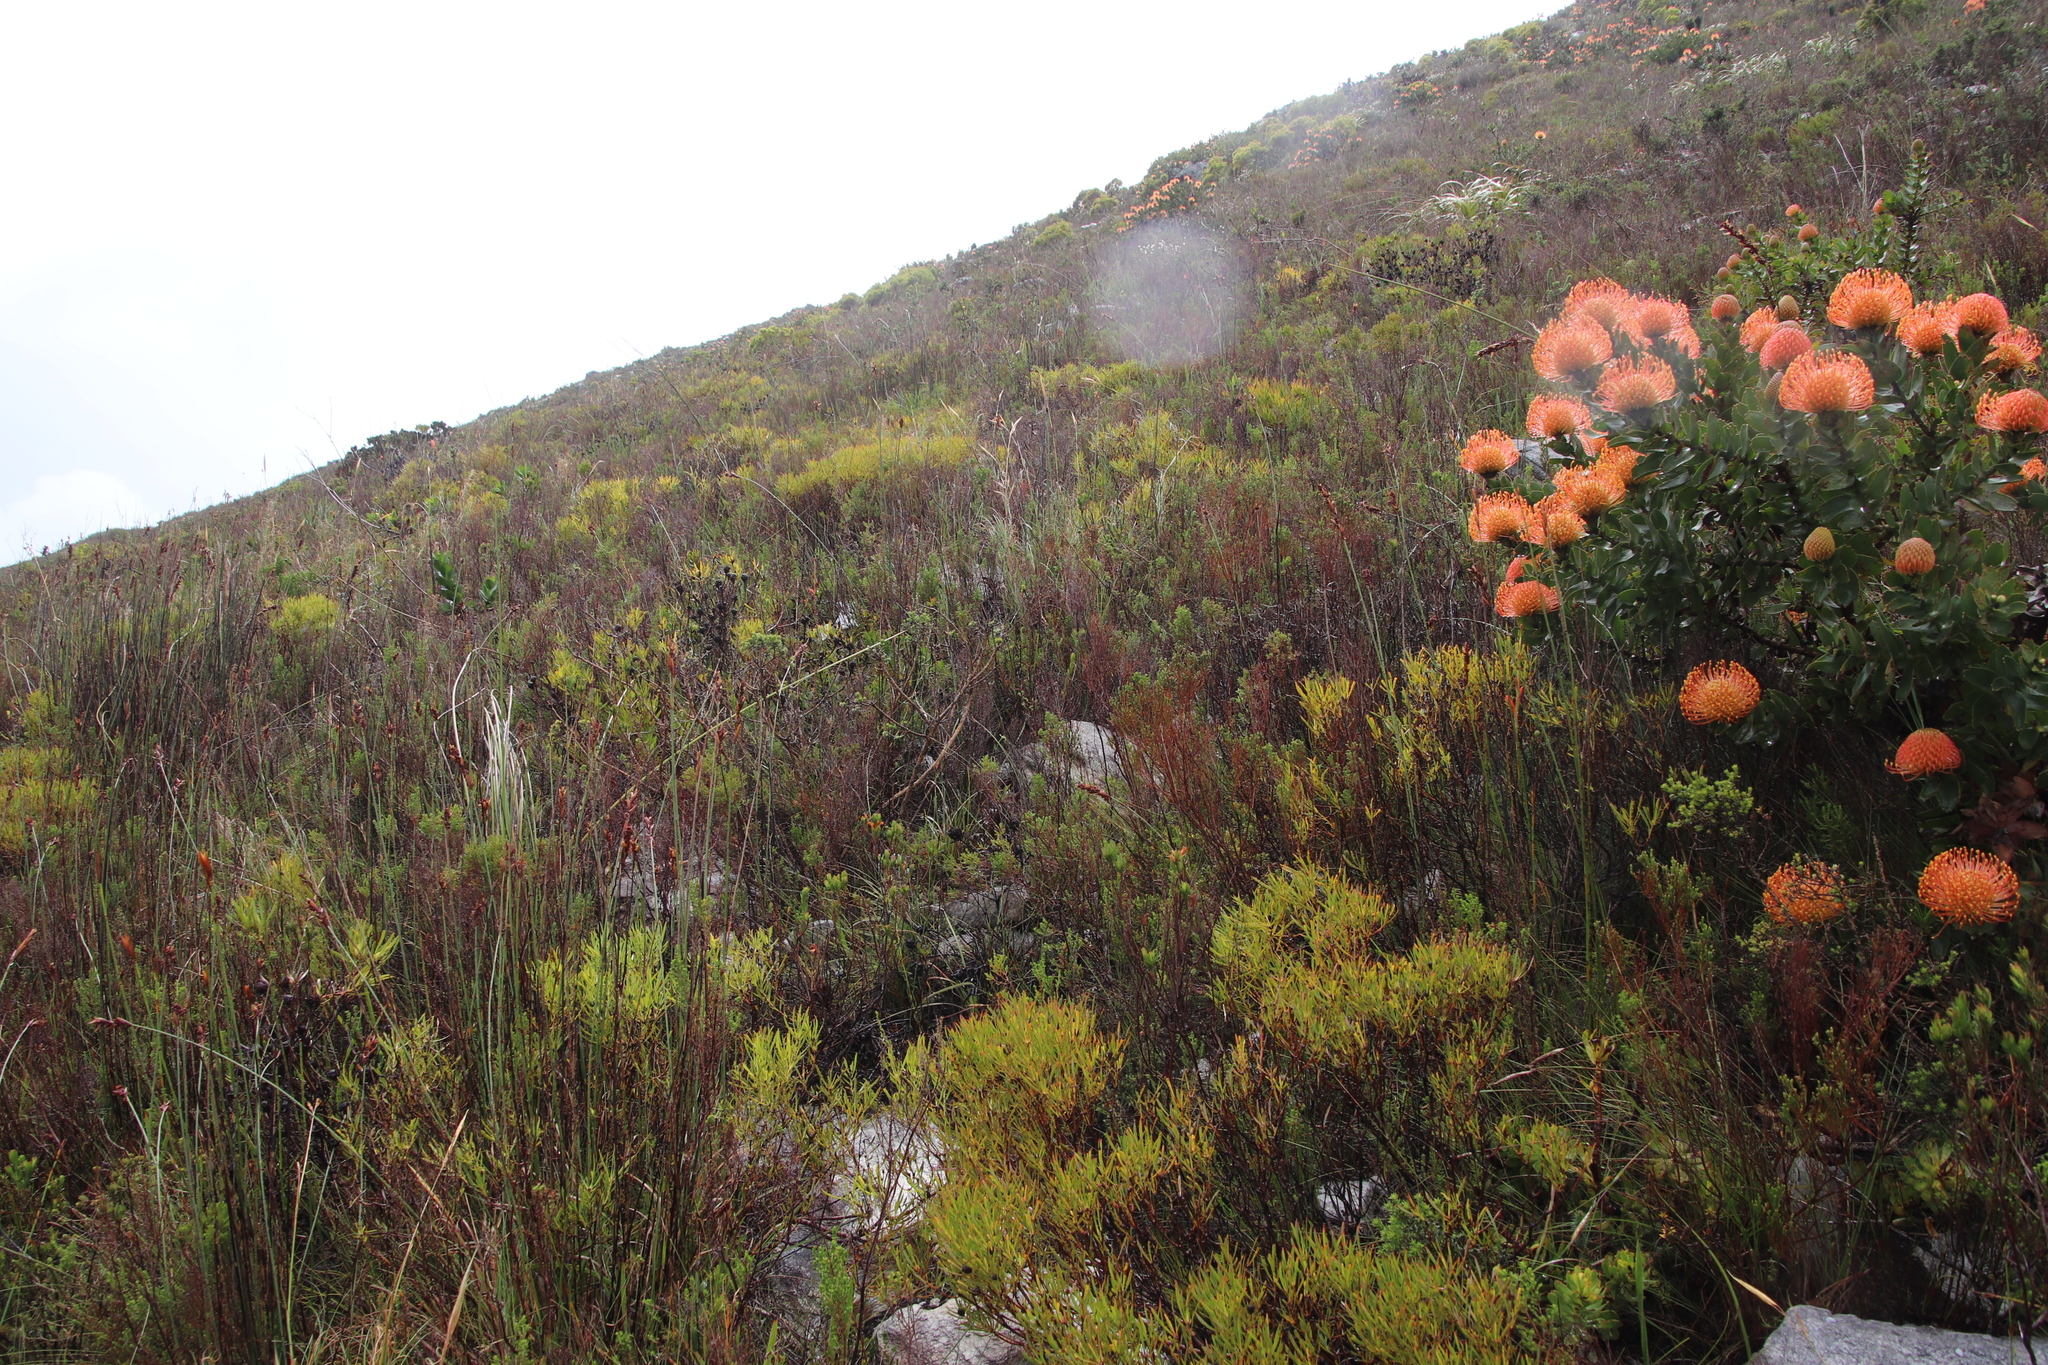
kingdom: Plantae
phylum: Tracheophyta
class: Magnoliopsida
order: Proteales
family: Proteaceae
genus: Leucadendron
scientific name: Leucadendron salignum
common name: Common sunshine conebush
